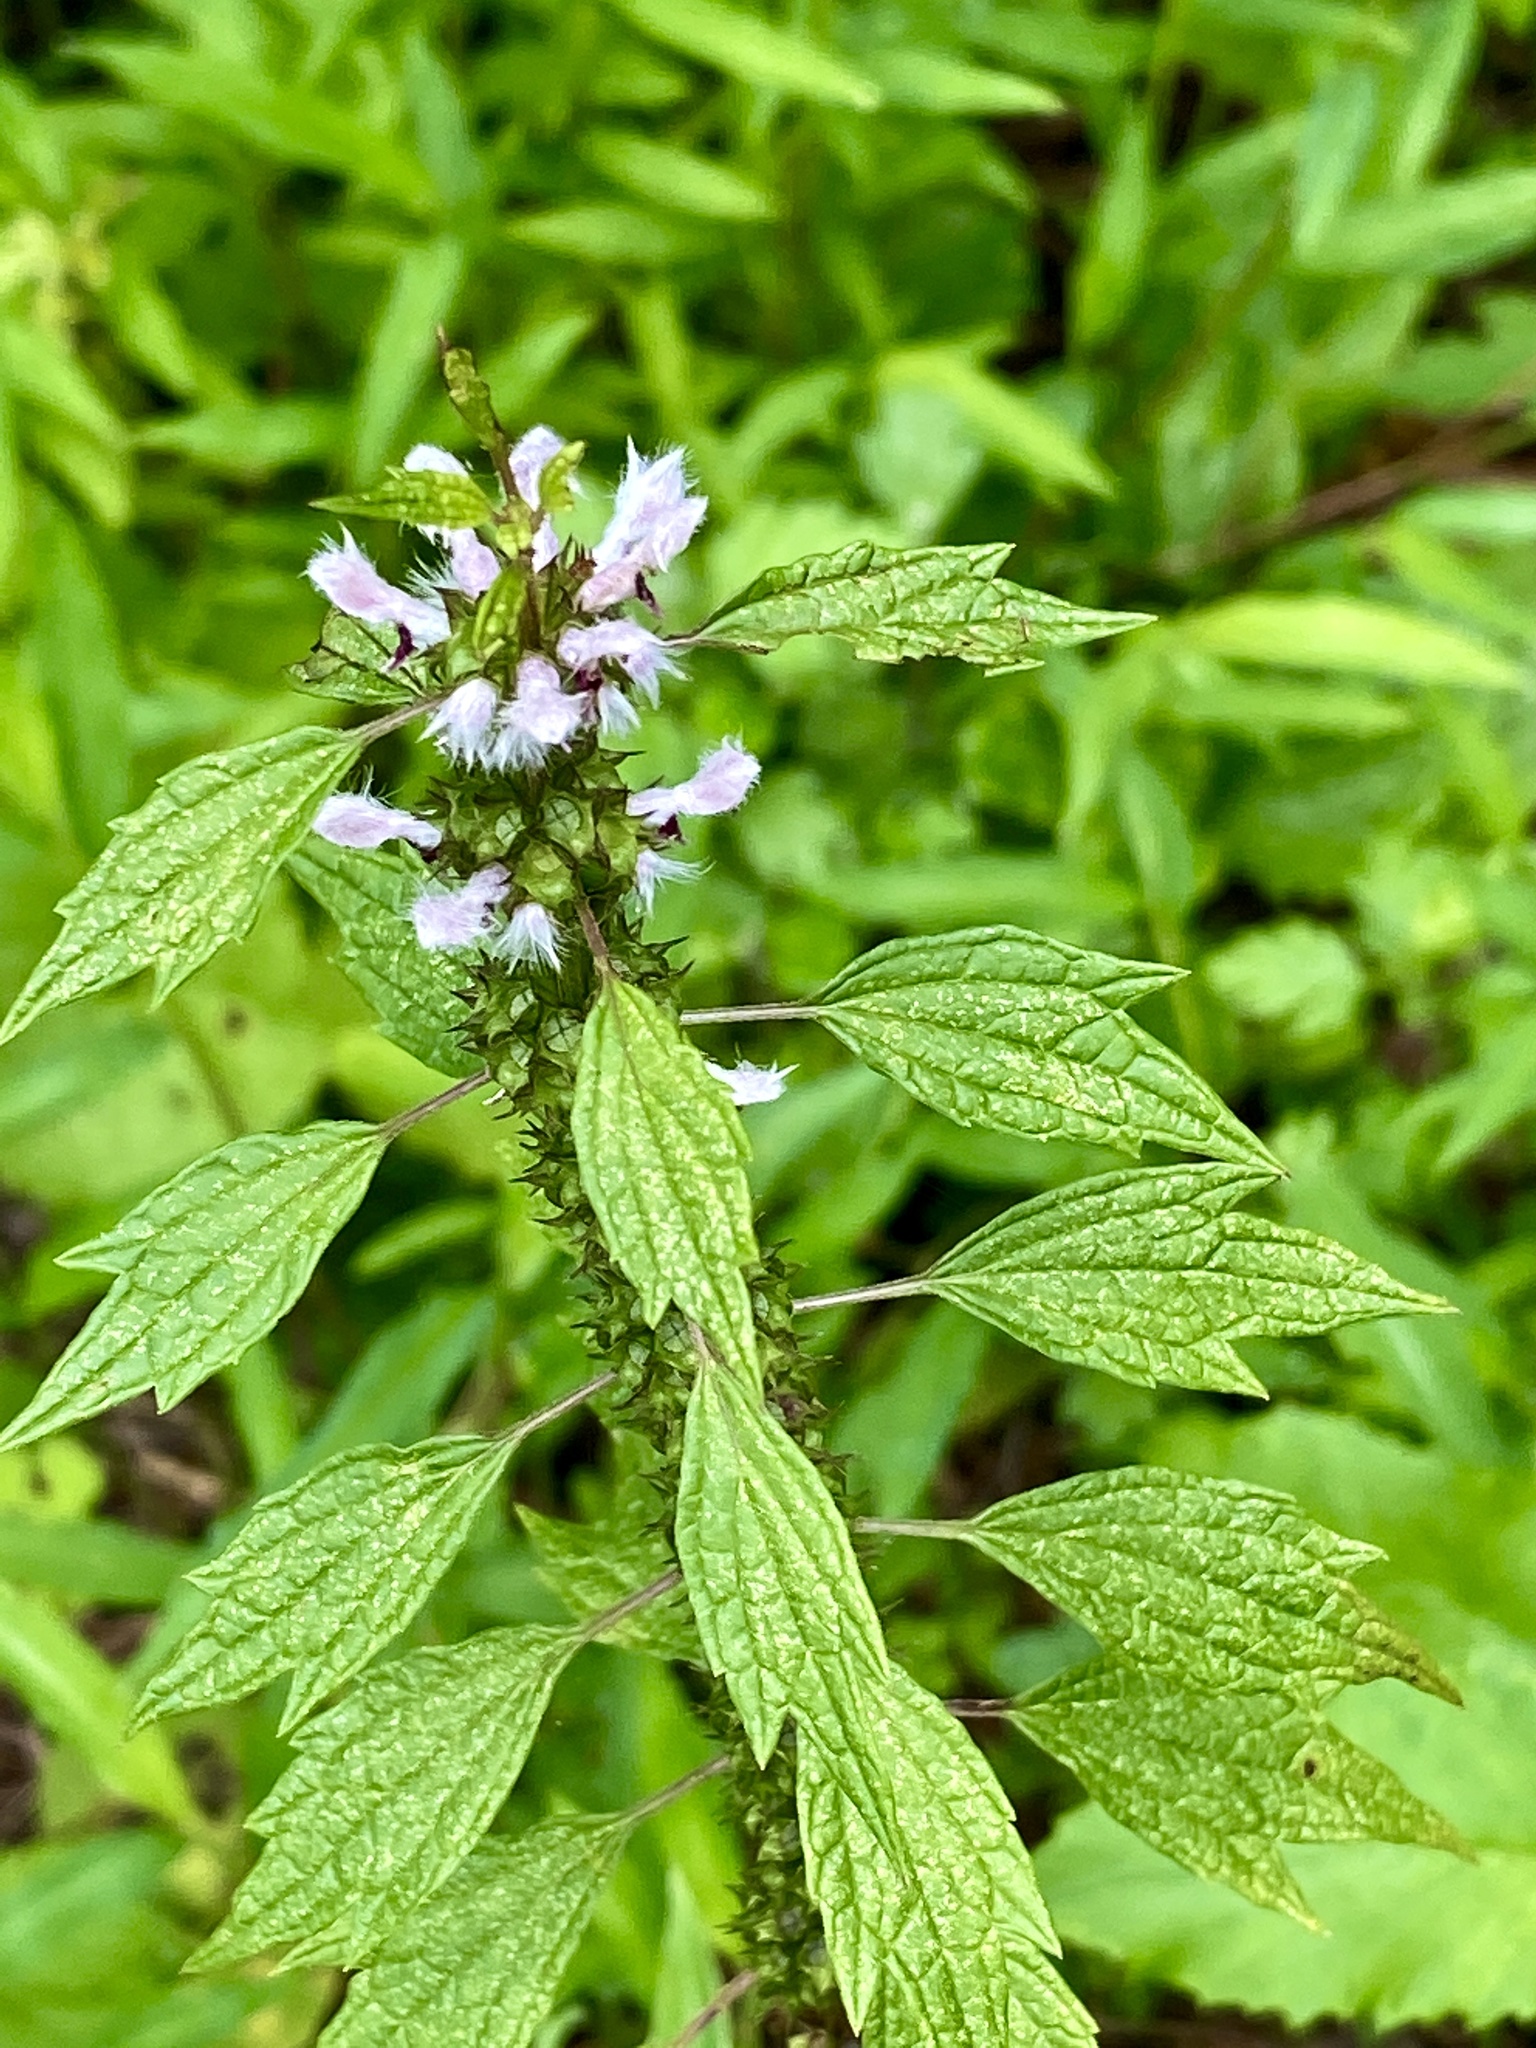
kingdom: Plantae
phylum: Tracheophyta
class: Magnoliopsida
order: Lamiales
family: Lamiaceae
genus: Leonurus
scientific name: Leonurus cardiaca
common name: Motherwort
